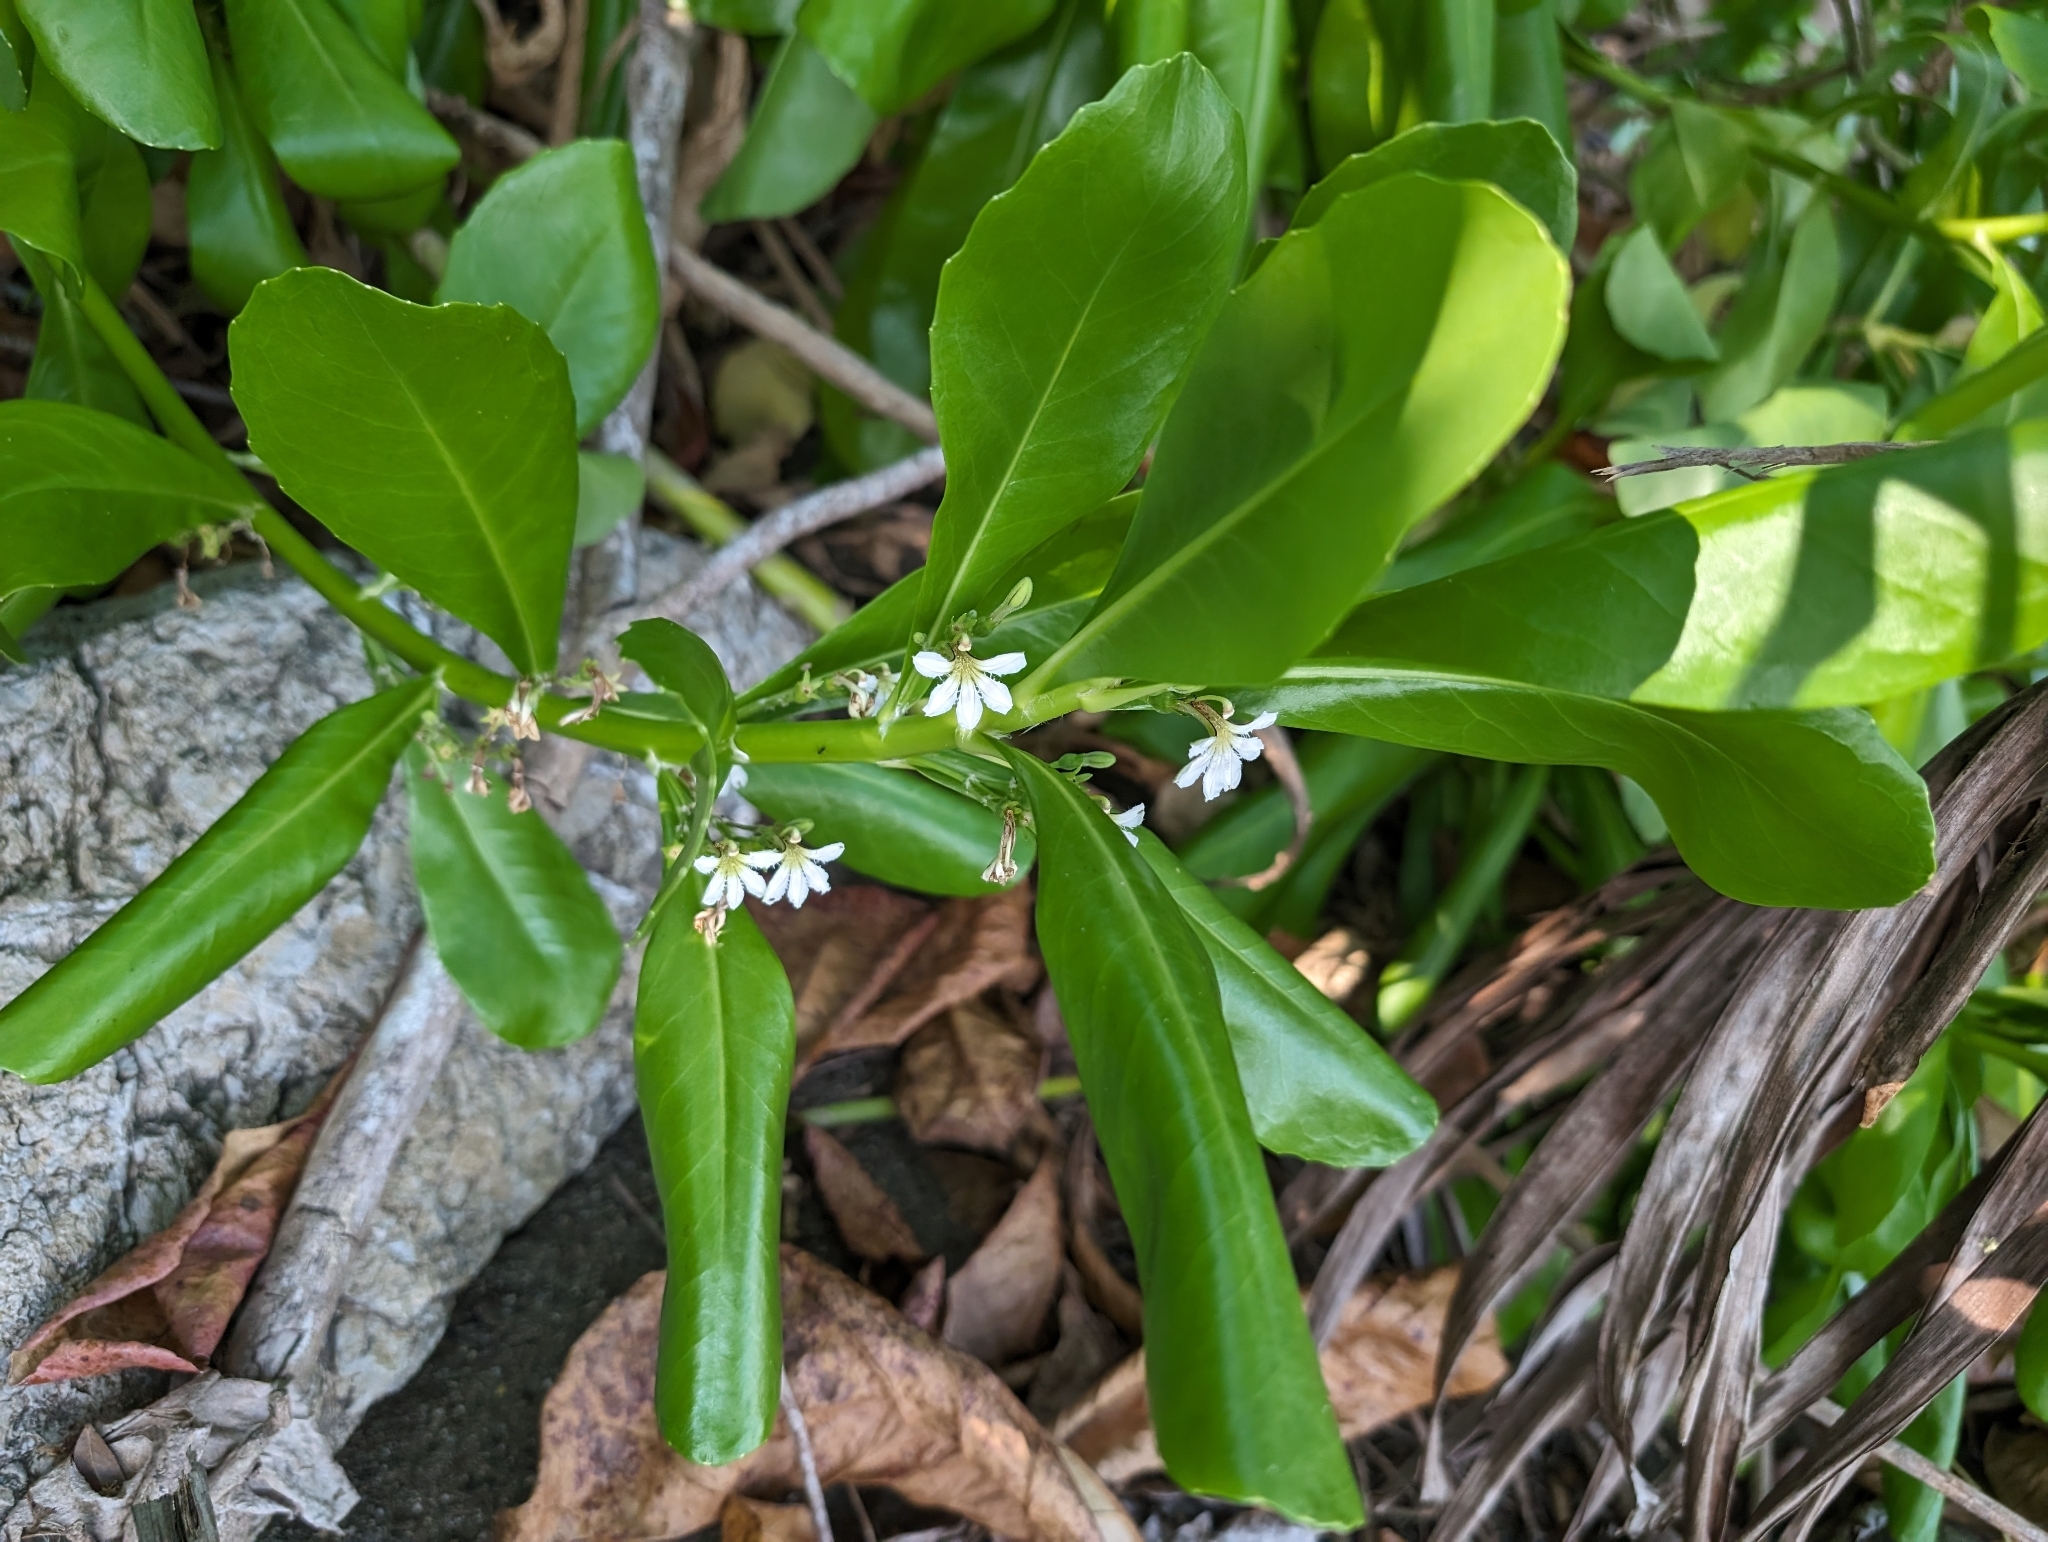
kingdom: Plantae
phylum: Tracheophyta
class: Magnoliopsida
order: Asterales
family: Goodeniaceae
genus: Scaevola
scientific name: Scaevola taccada
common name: Sea lettucetree
